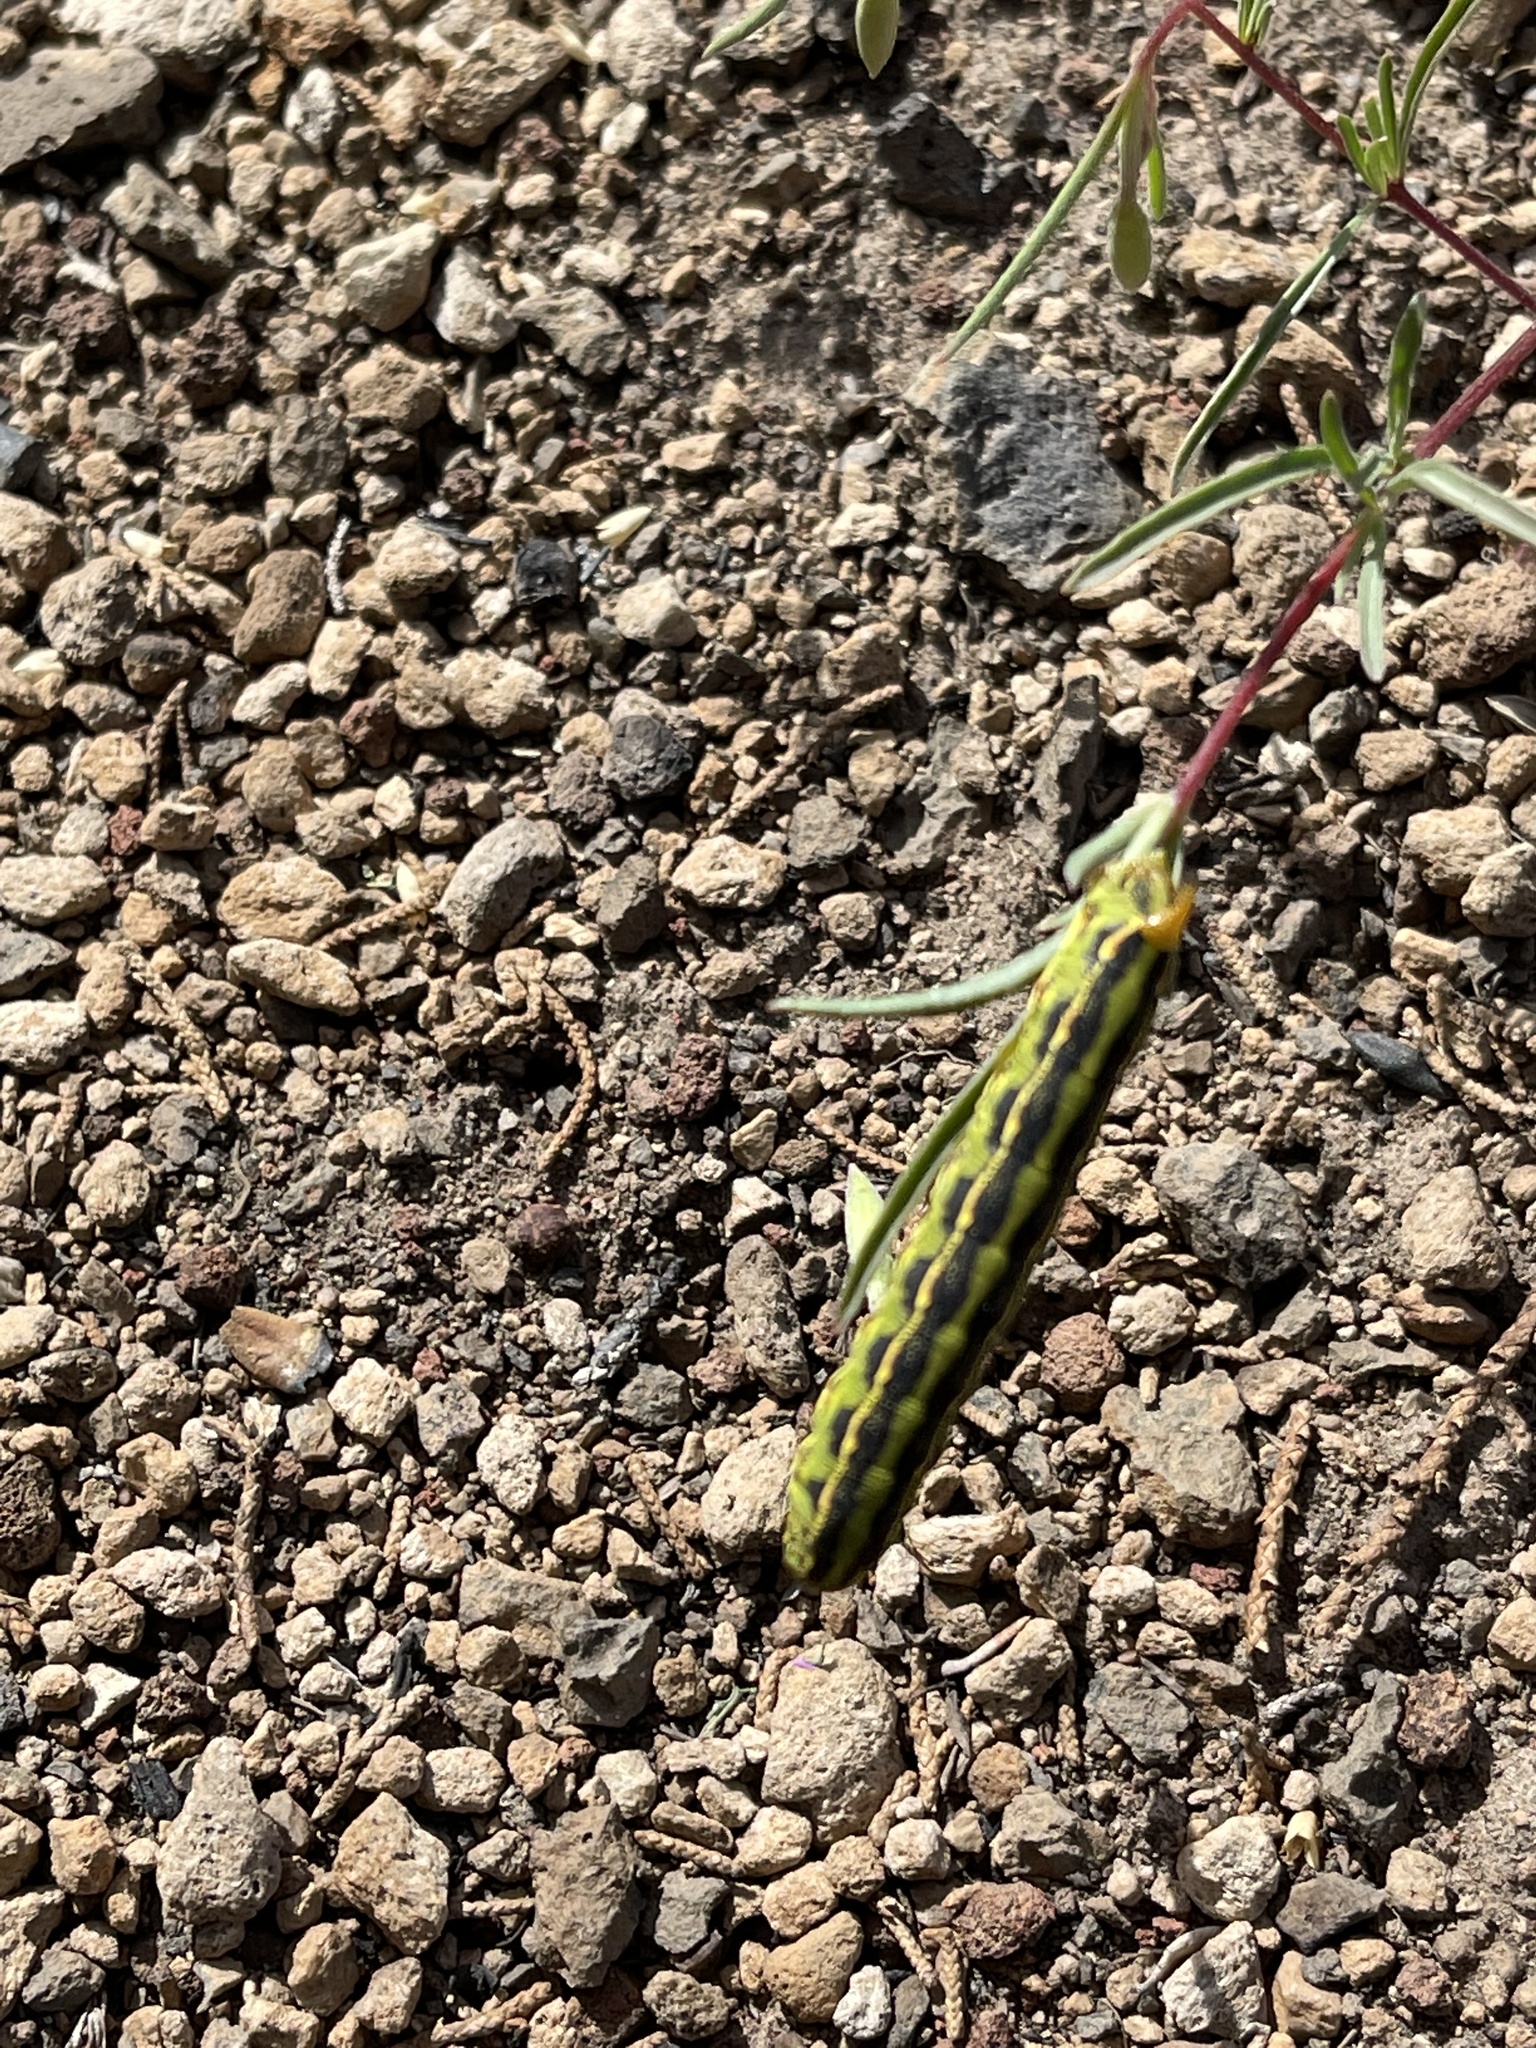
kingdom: Animalia
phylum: Arthropoda
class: Insecta
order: Lepidoptera
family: Sphingidae
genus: Hyles
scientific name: Hyles lineata
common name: White-lined sphinx
